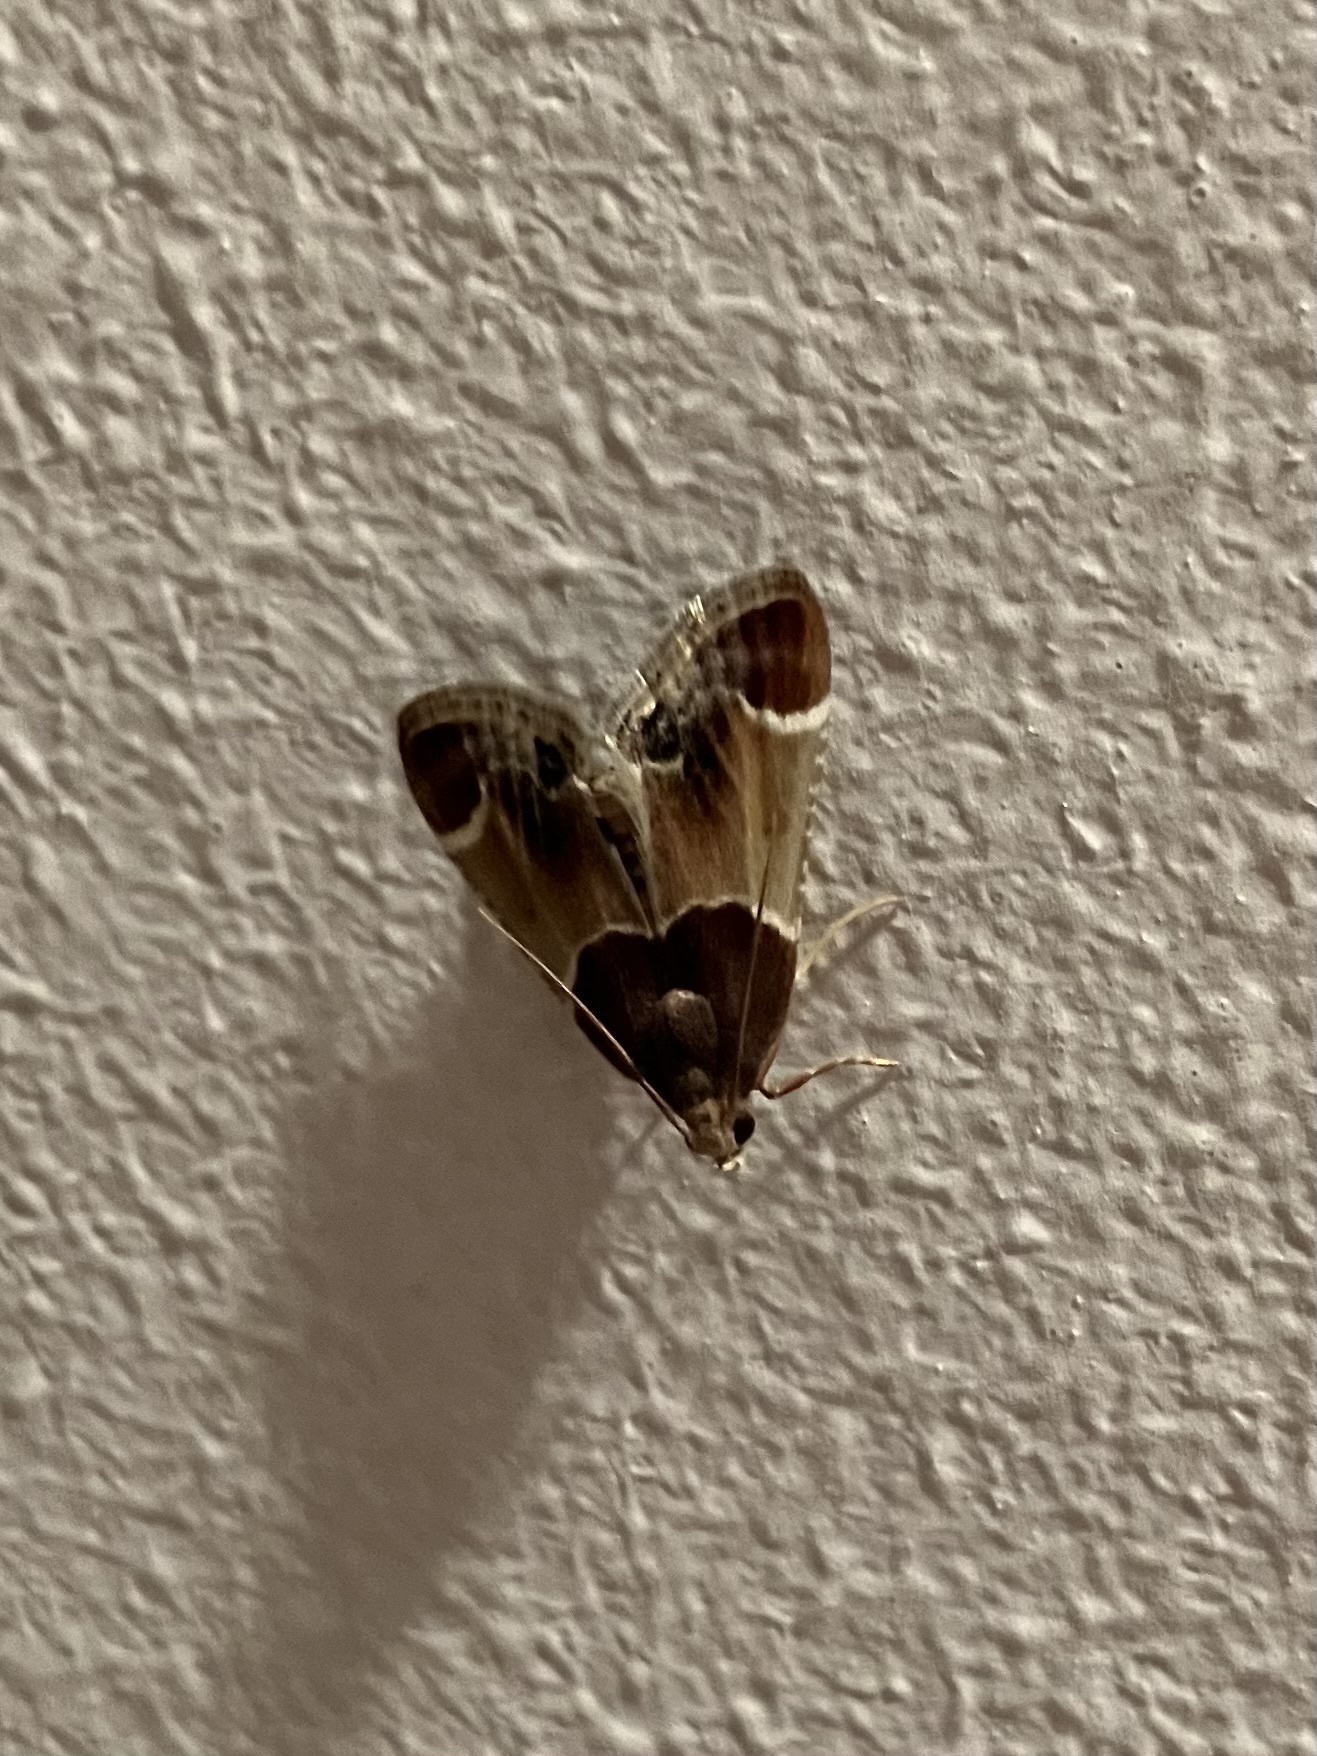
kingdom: Animalia
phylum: Arthropoda
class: Insecta
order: Lepidoptera
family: Pyralidae
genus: Pyralis
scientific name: Pyralis farinalis
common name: Meal moth
